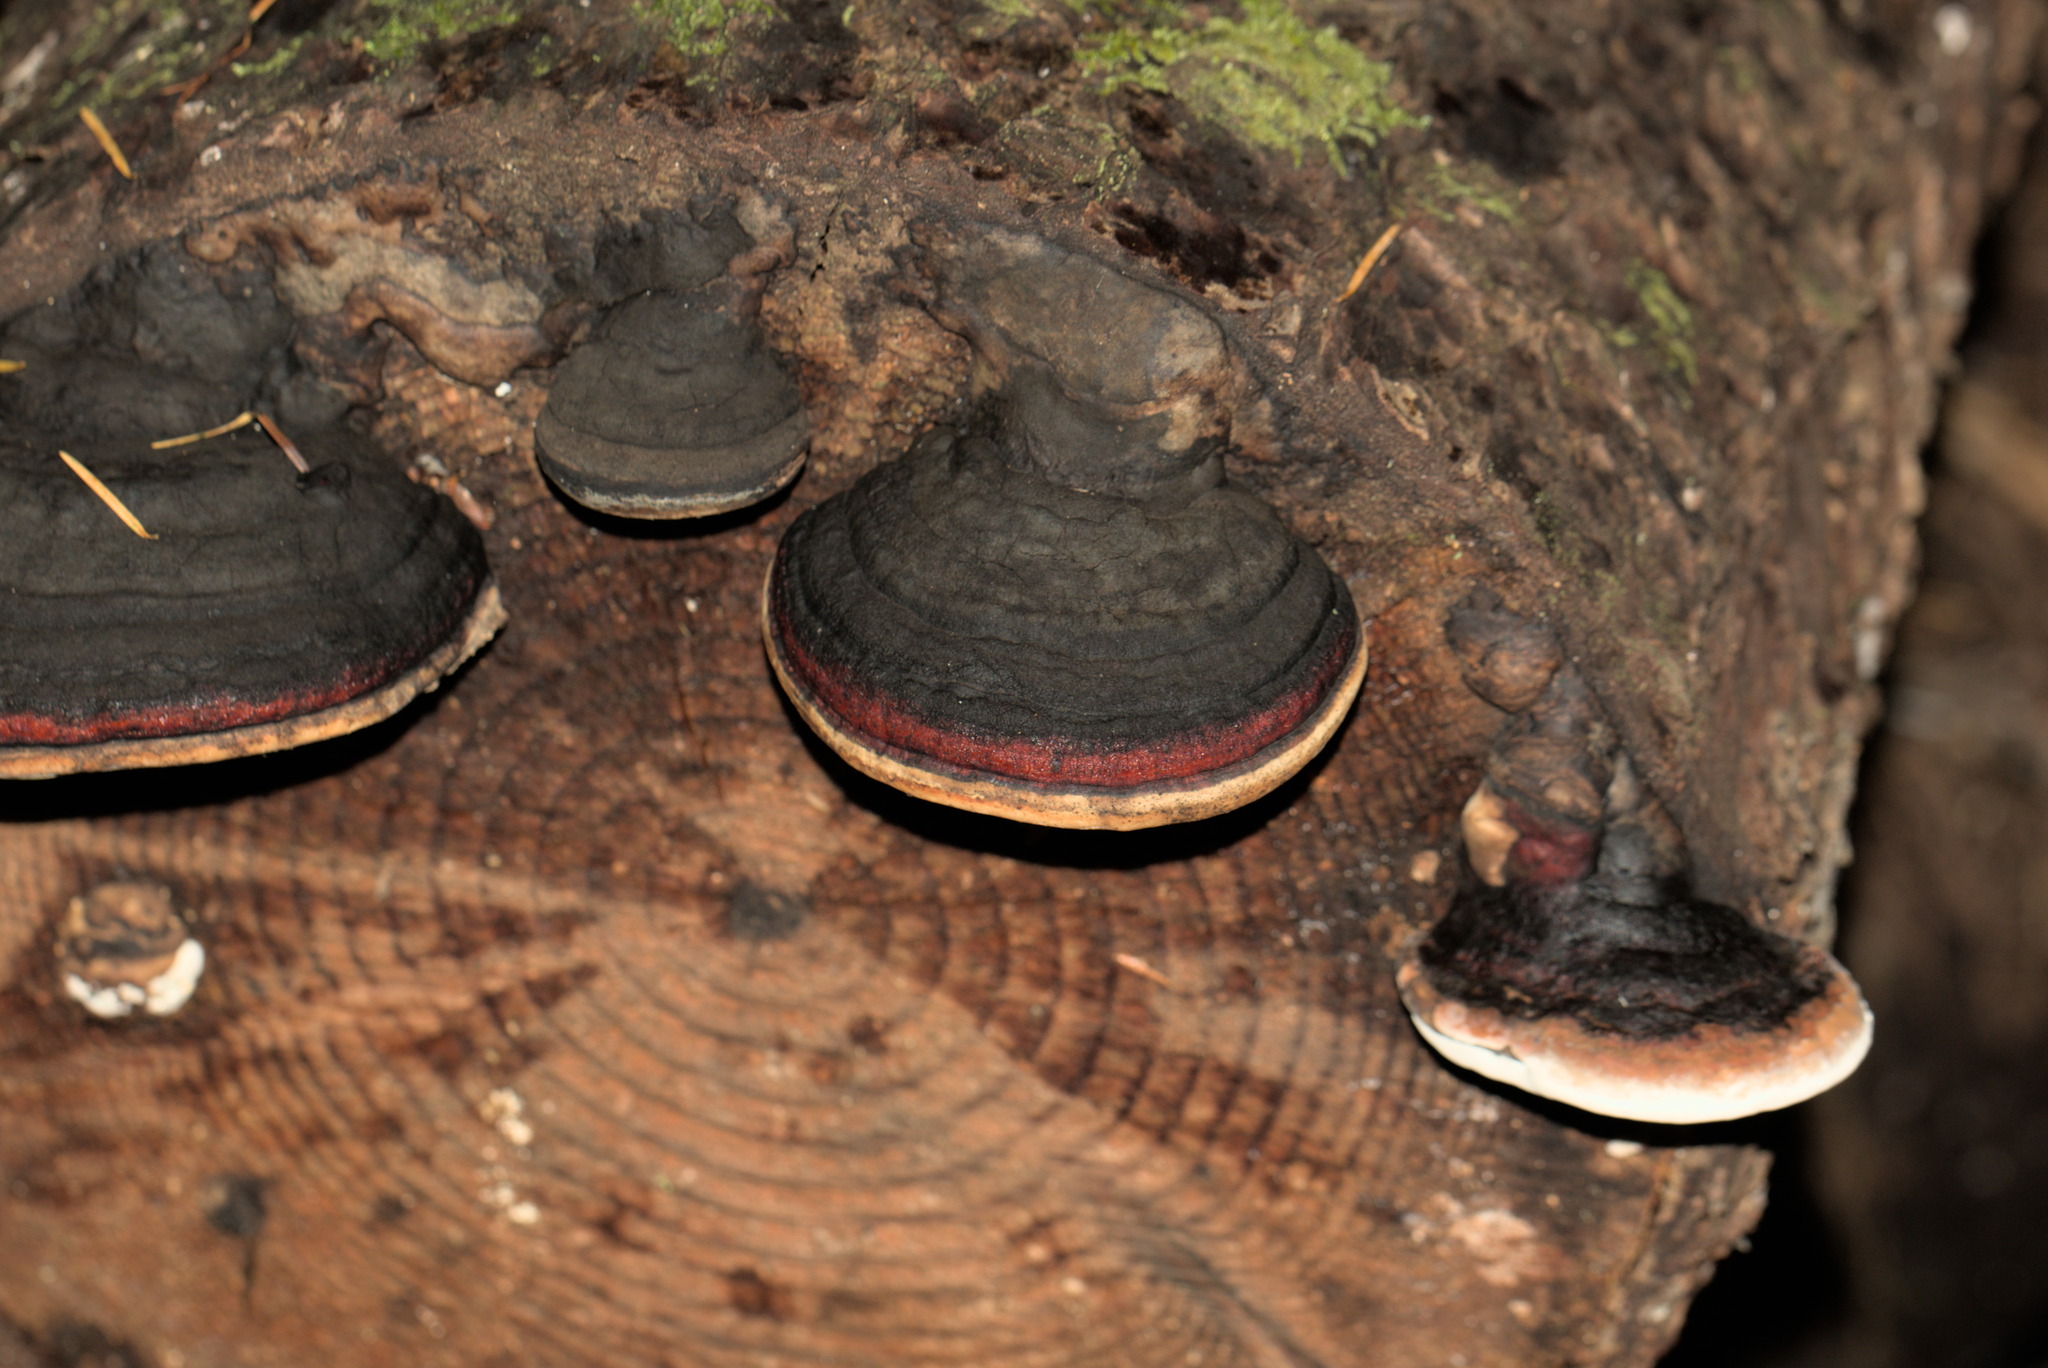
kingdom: Fungi
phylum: Basidiomycota
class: Agaricomycetes
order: Polyporales
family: Fomitopsidaceae
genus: Fomitopsis
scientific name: Fomitopsis mounceae
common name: Northern red belt
